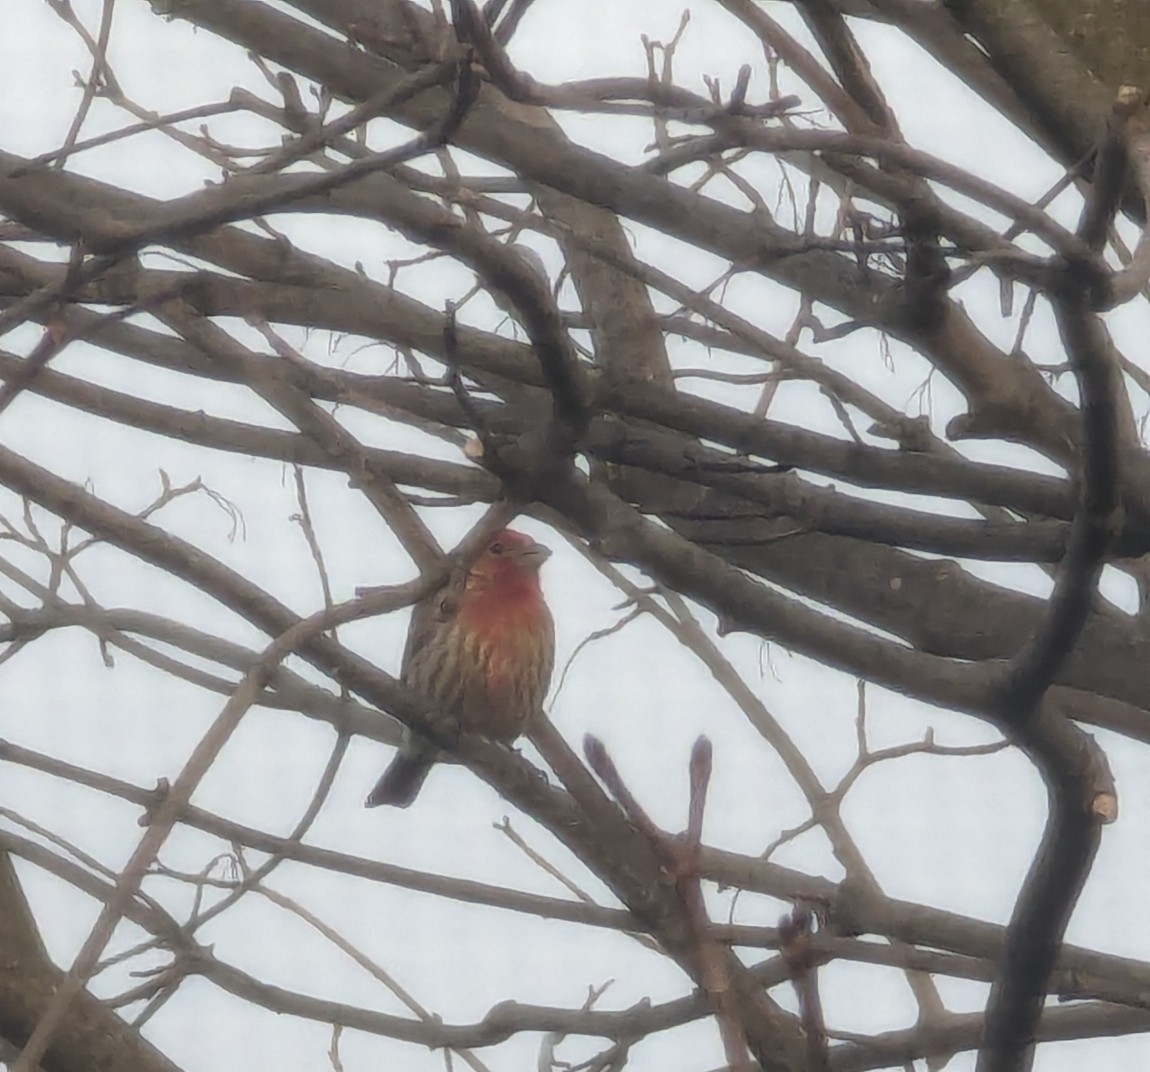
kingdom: Animalia
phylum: Chordata
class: Aves
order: Passeriformes
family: Fringillidae
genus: Haemorhous
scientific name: Haemorhous mexicanus
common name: House finch
